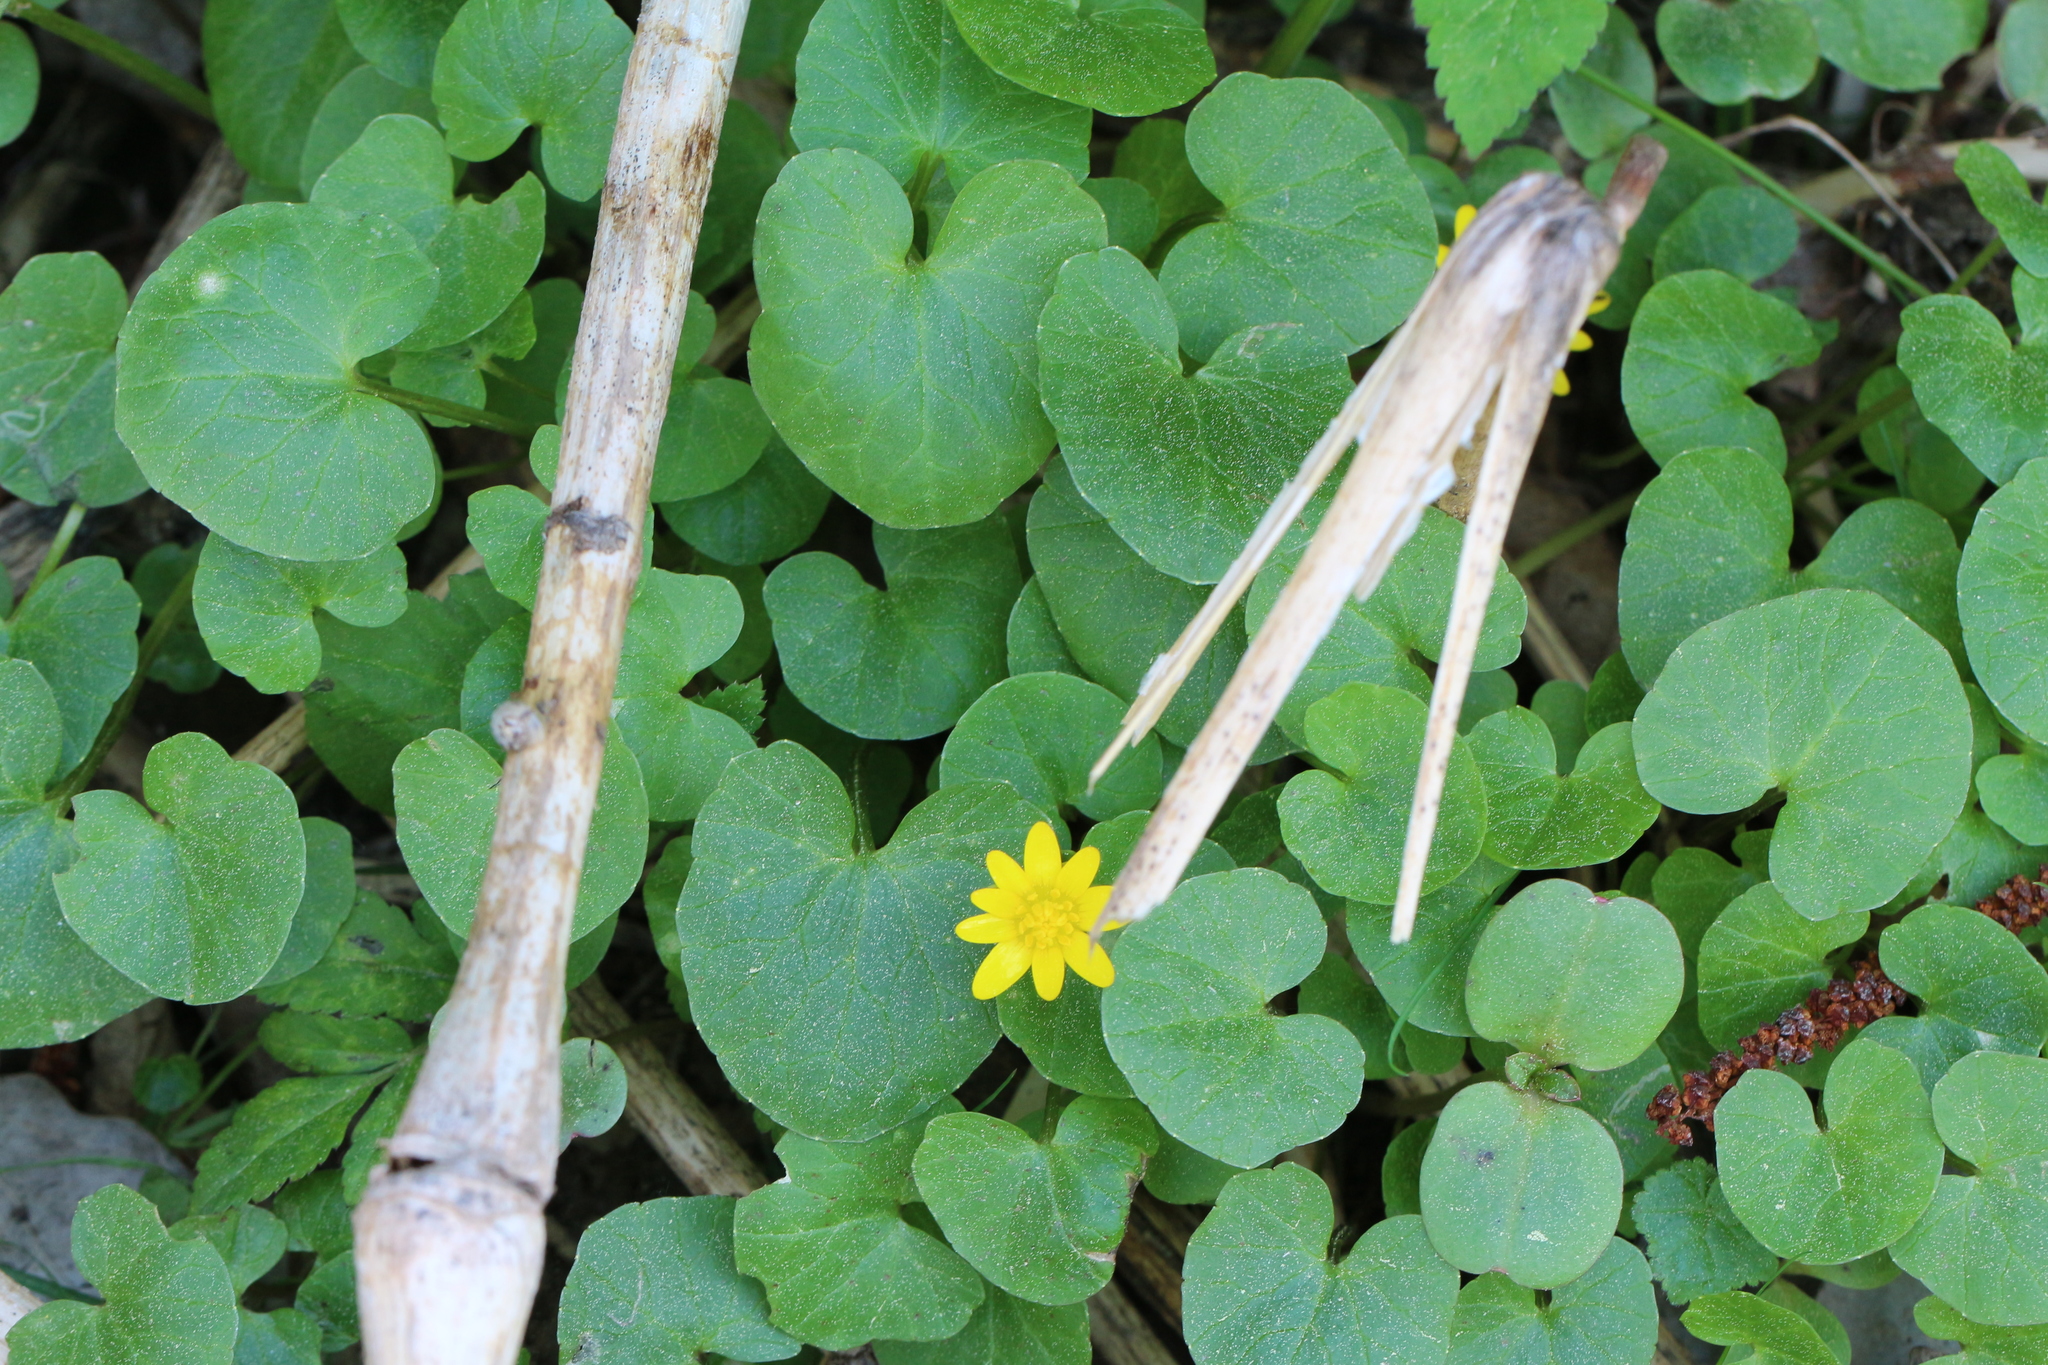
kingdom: Plantae
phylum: Tracheophyta
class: Magnoliopsida
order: Ranunculales
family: Ranunculaceae
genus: Ficaria
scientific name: Ficaria verna
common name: Lesser celandine
